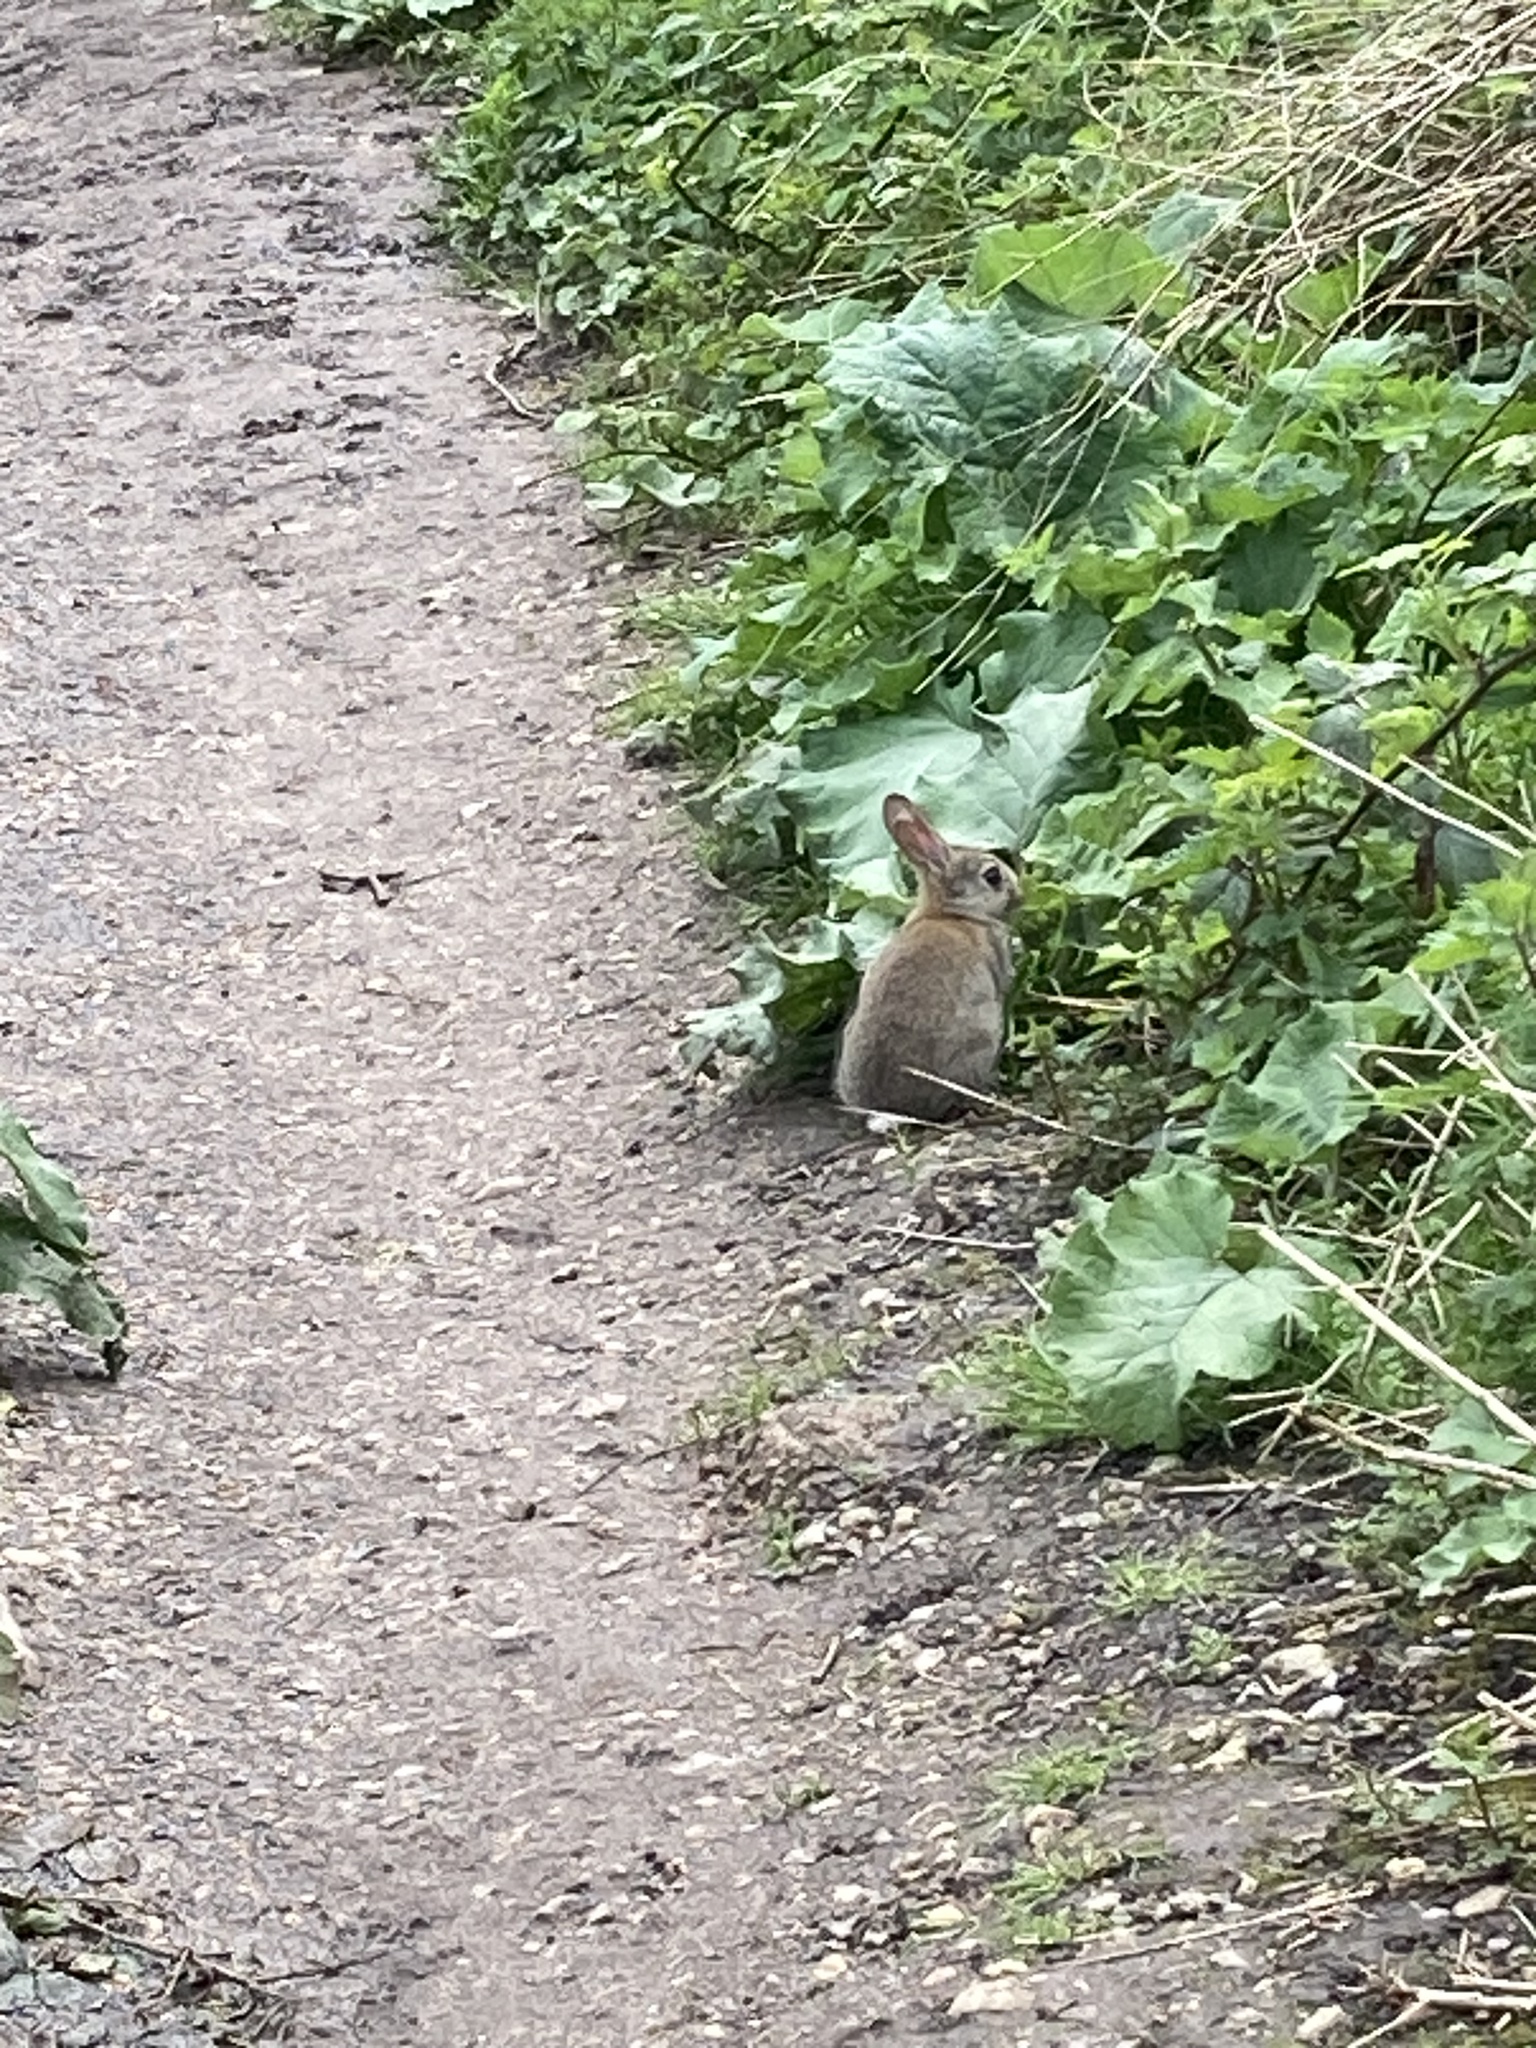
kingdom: Animalia
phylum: Chordata
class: Mammalia
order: Lagomorpha
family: Leporidae
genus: Oryctolagus
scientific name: Oryctolagus cuniculus
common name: European rabbit
